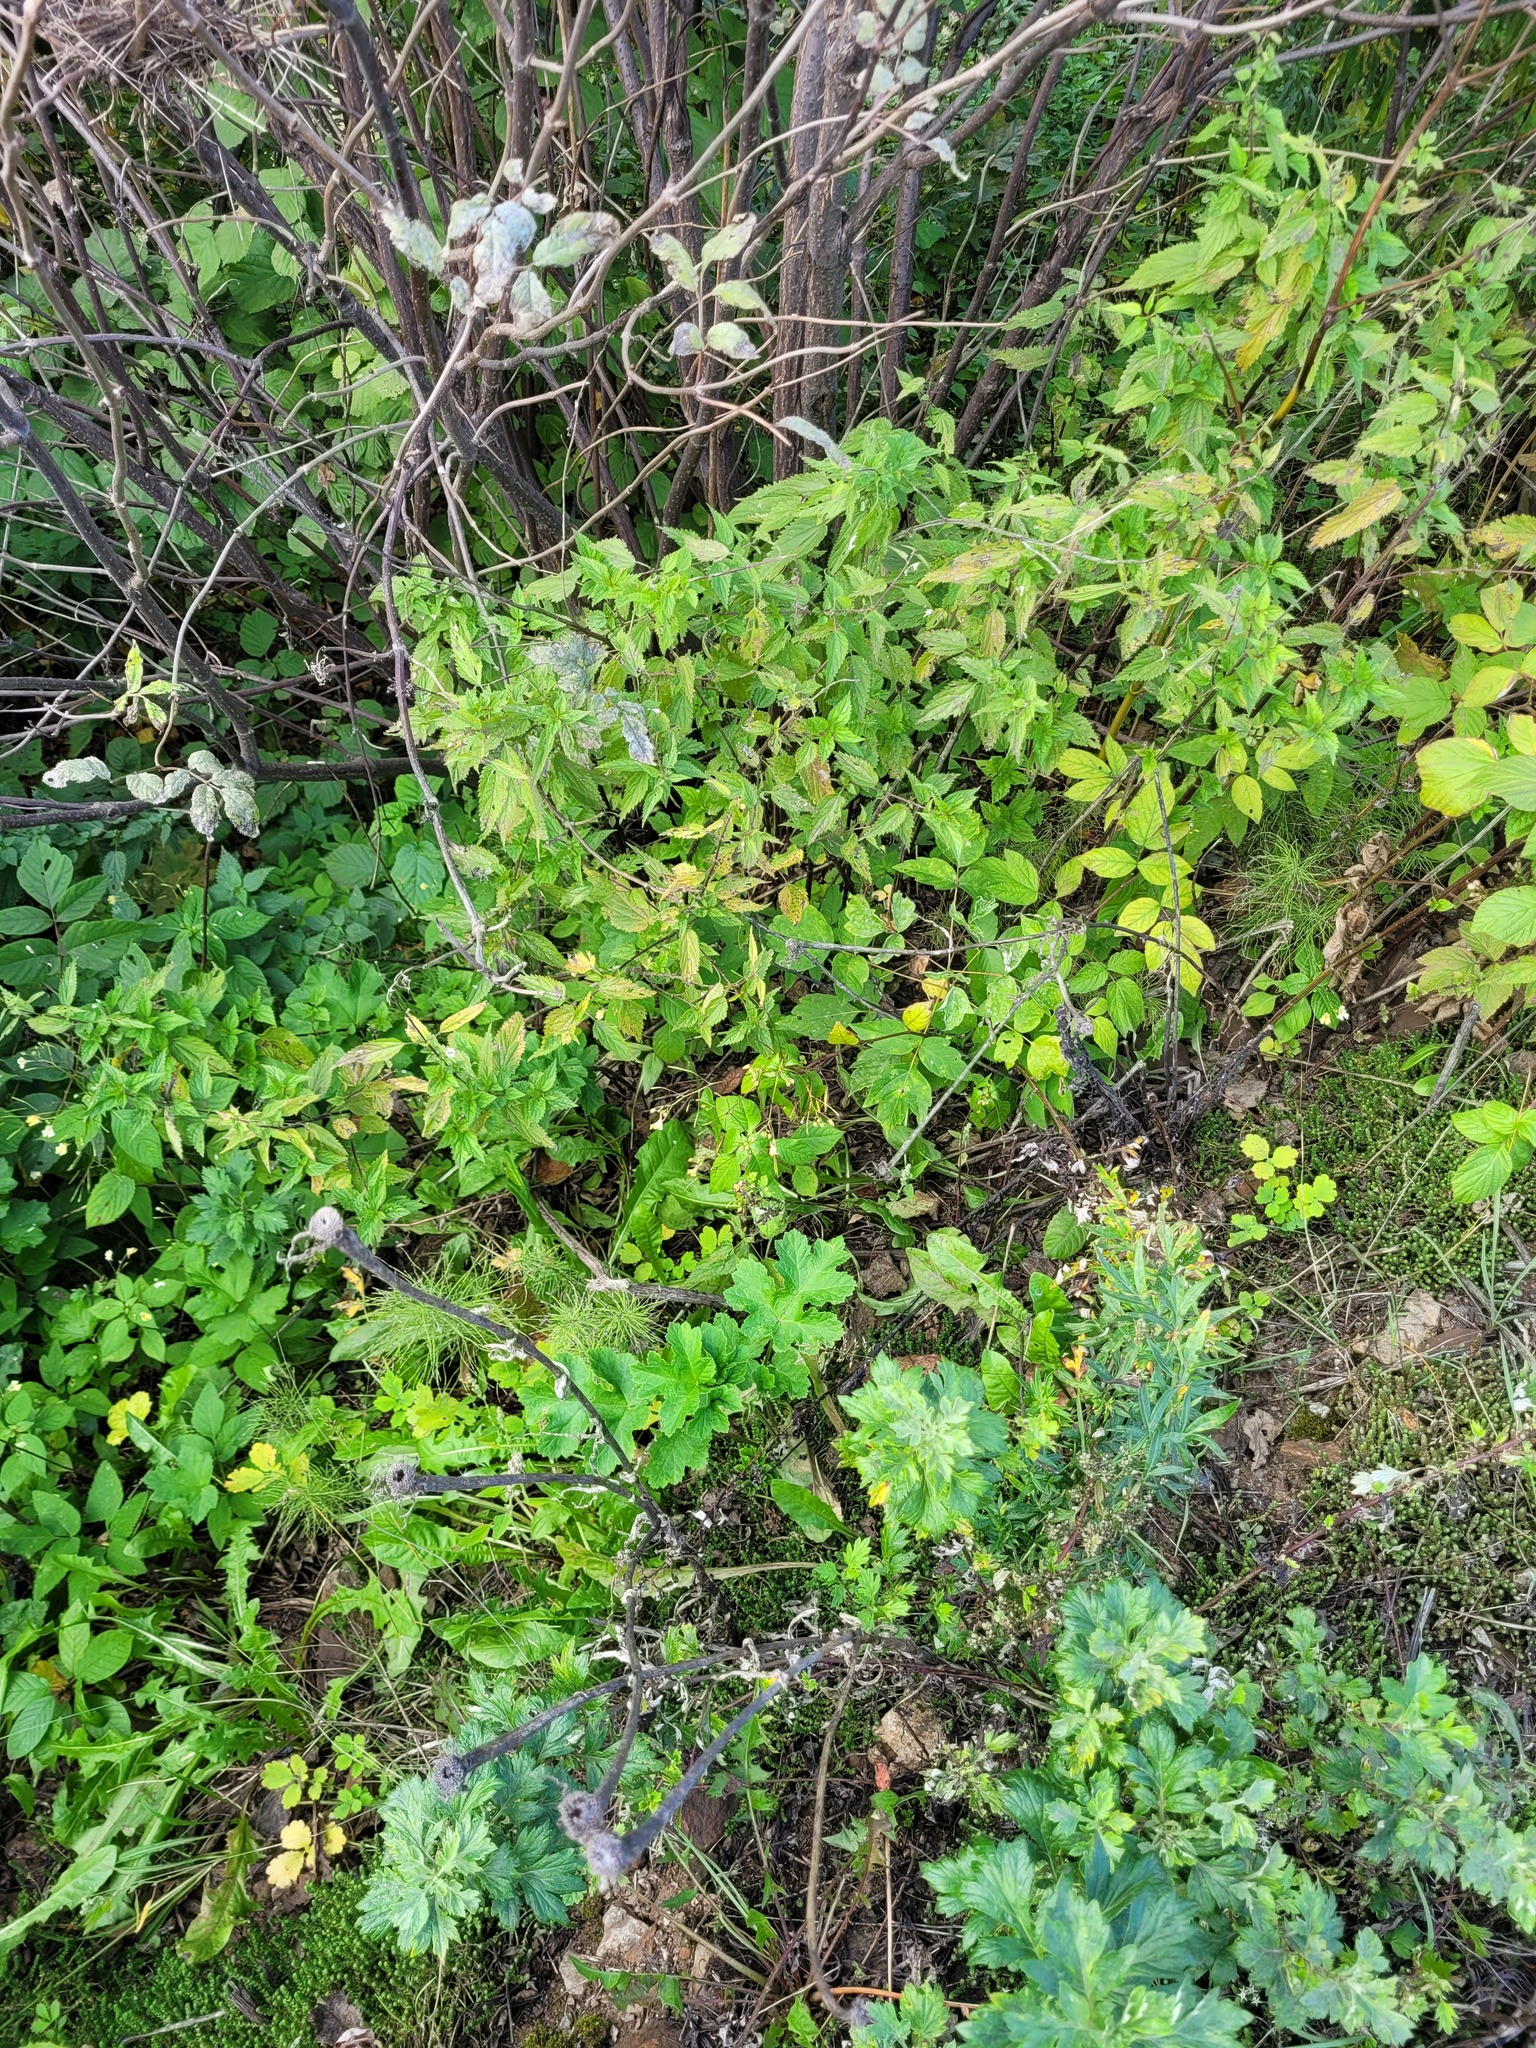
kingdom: Plantae
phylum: Tracheophyta
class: Magnoliopsida
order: Ericales
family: Balsaminaceae
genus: Impatiens
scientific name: Impatiens parviflora
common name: Small balsam
